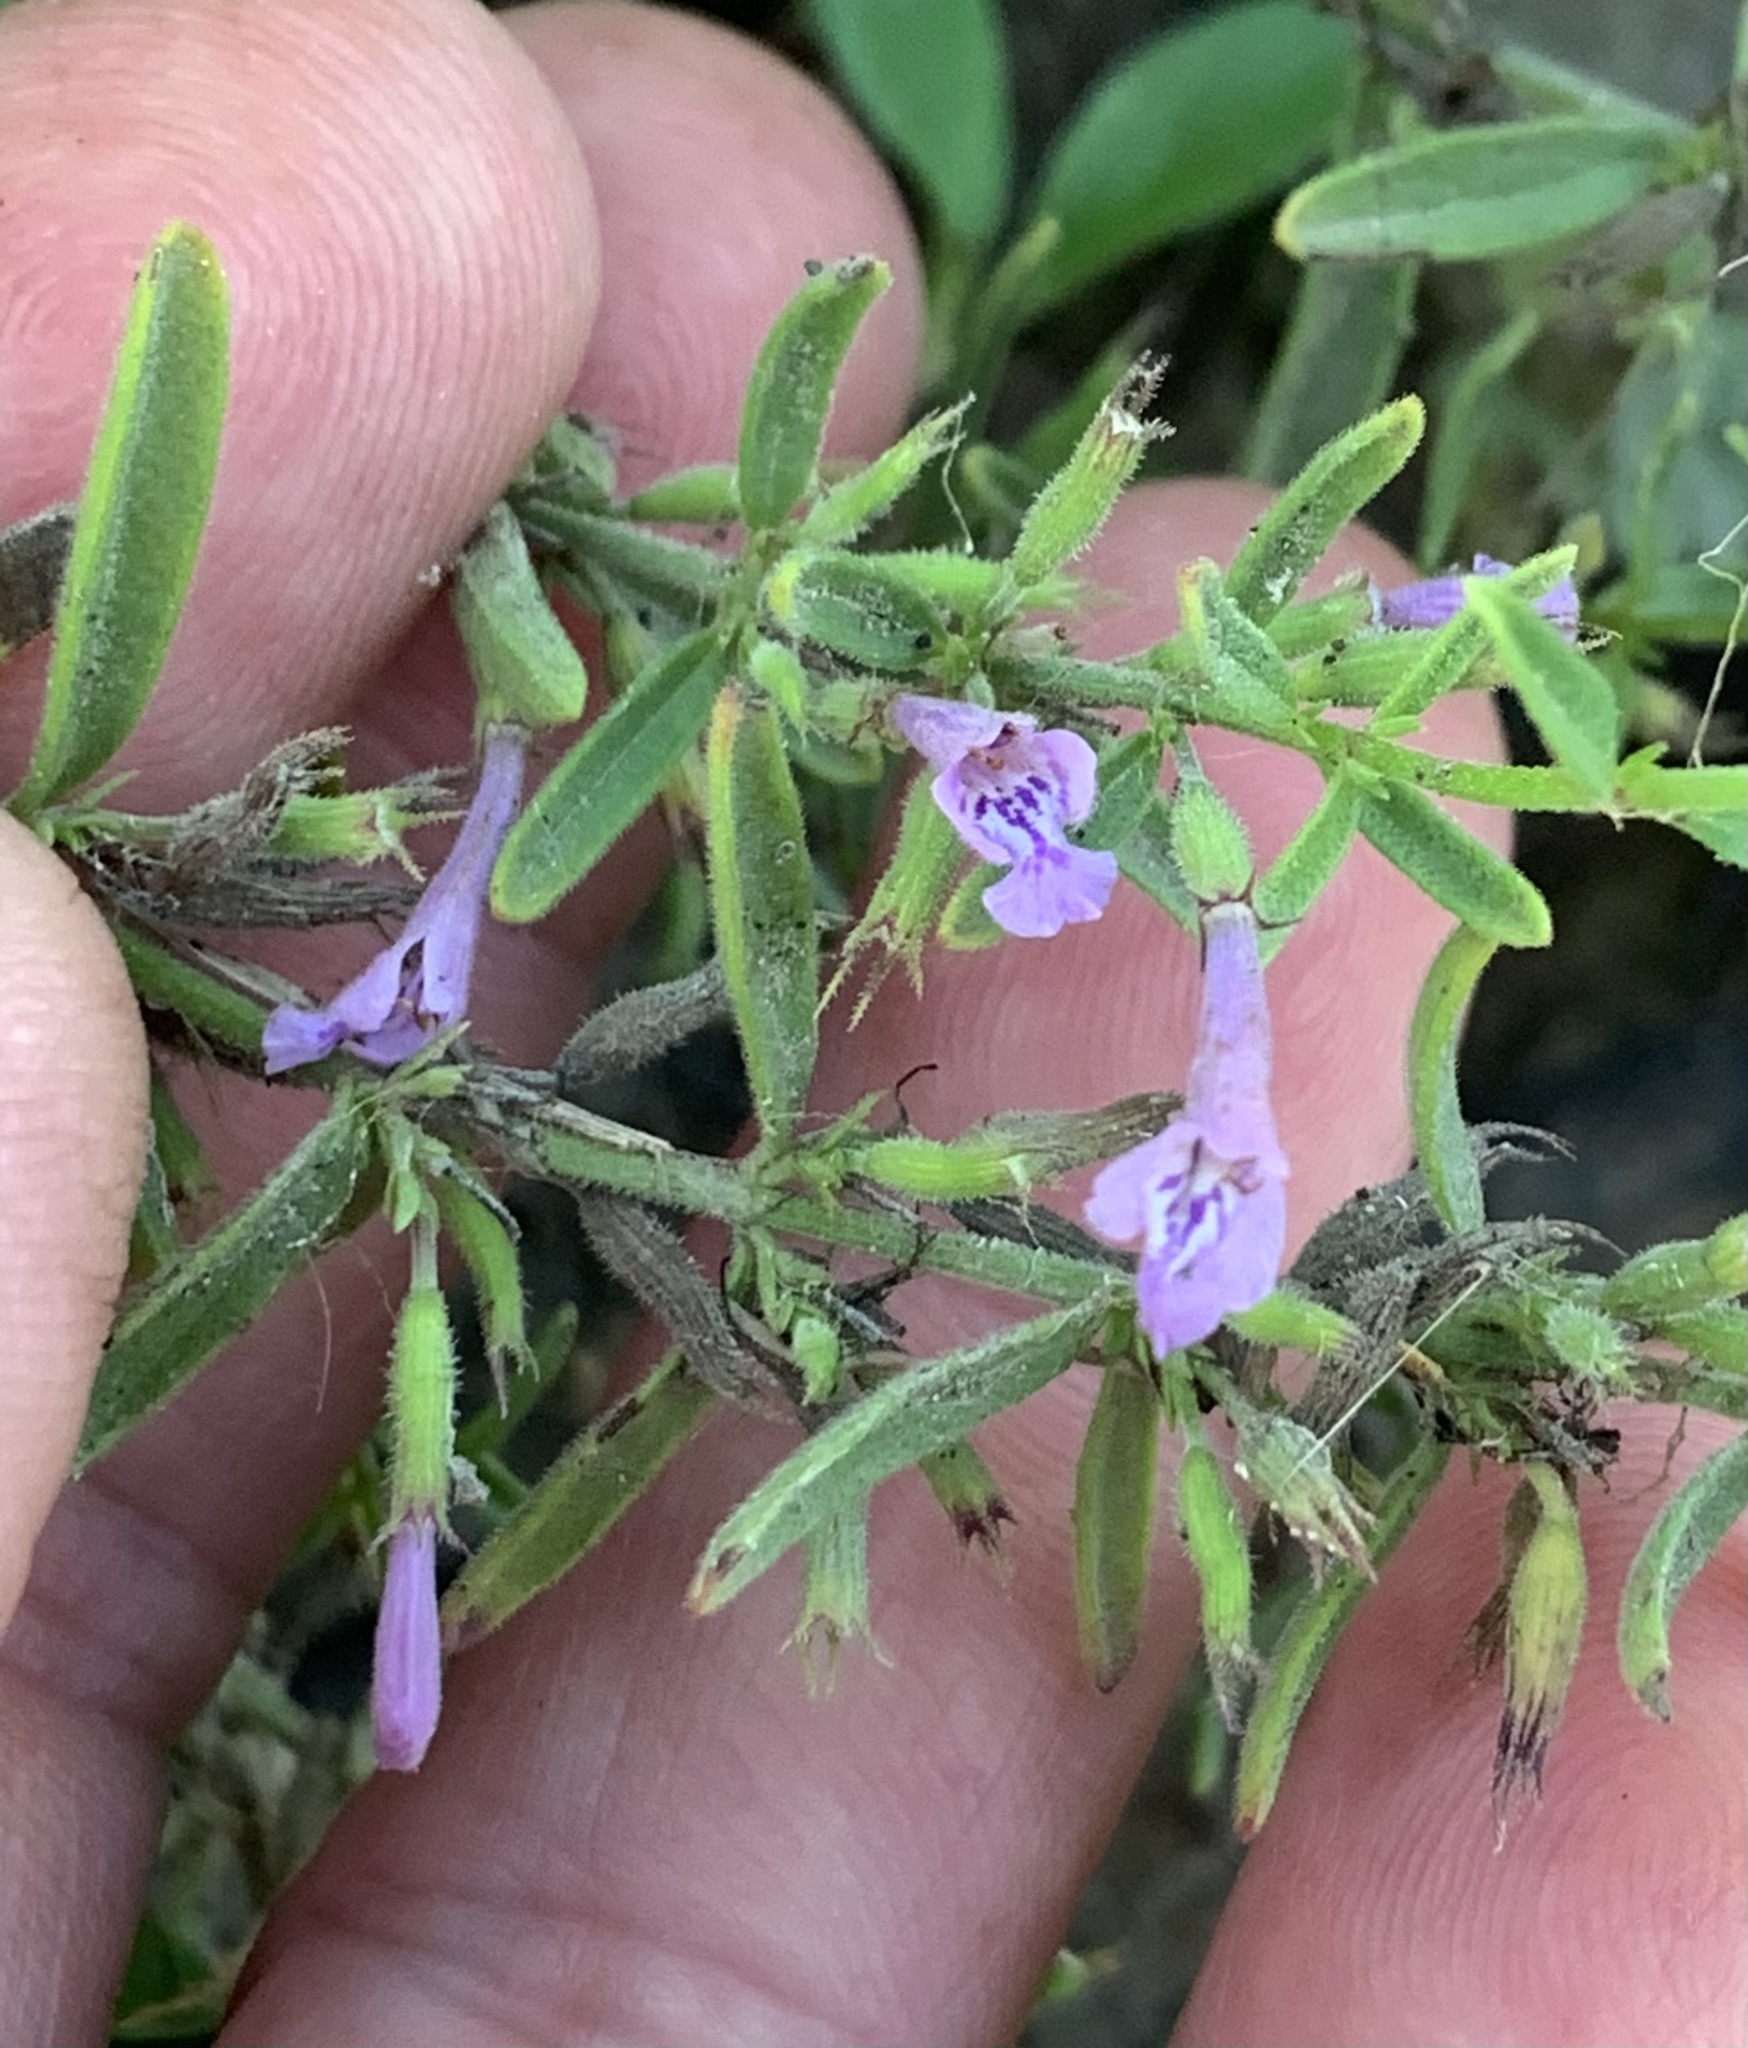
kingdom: Plantae
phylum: Tracheophyta
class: Magnoliopsida
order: Lamiales
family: Lamiaceae
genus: Hedeoma
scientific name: Hedeoma reverchonii
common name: Reverchon's false penny-royal
